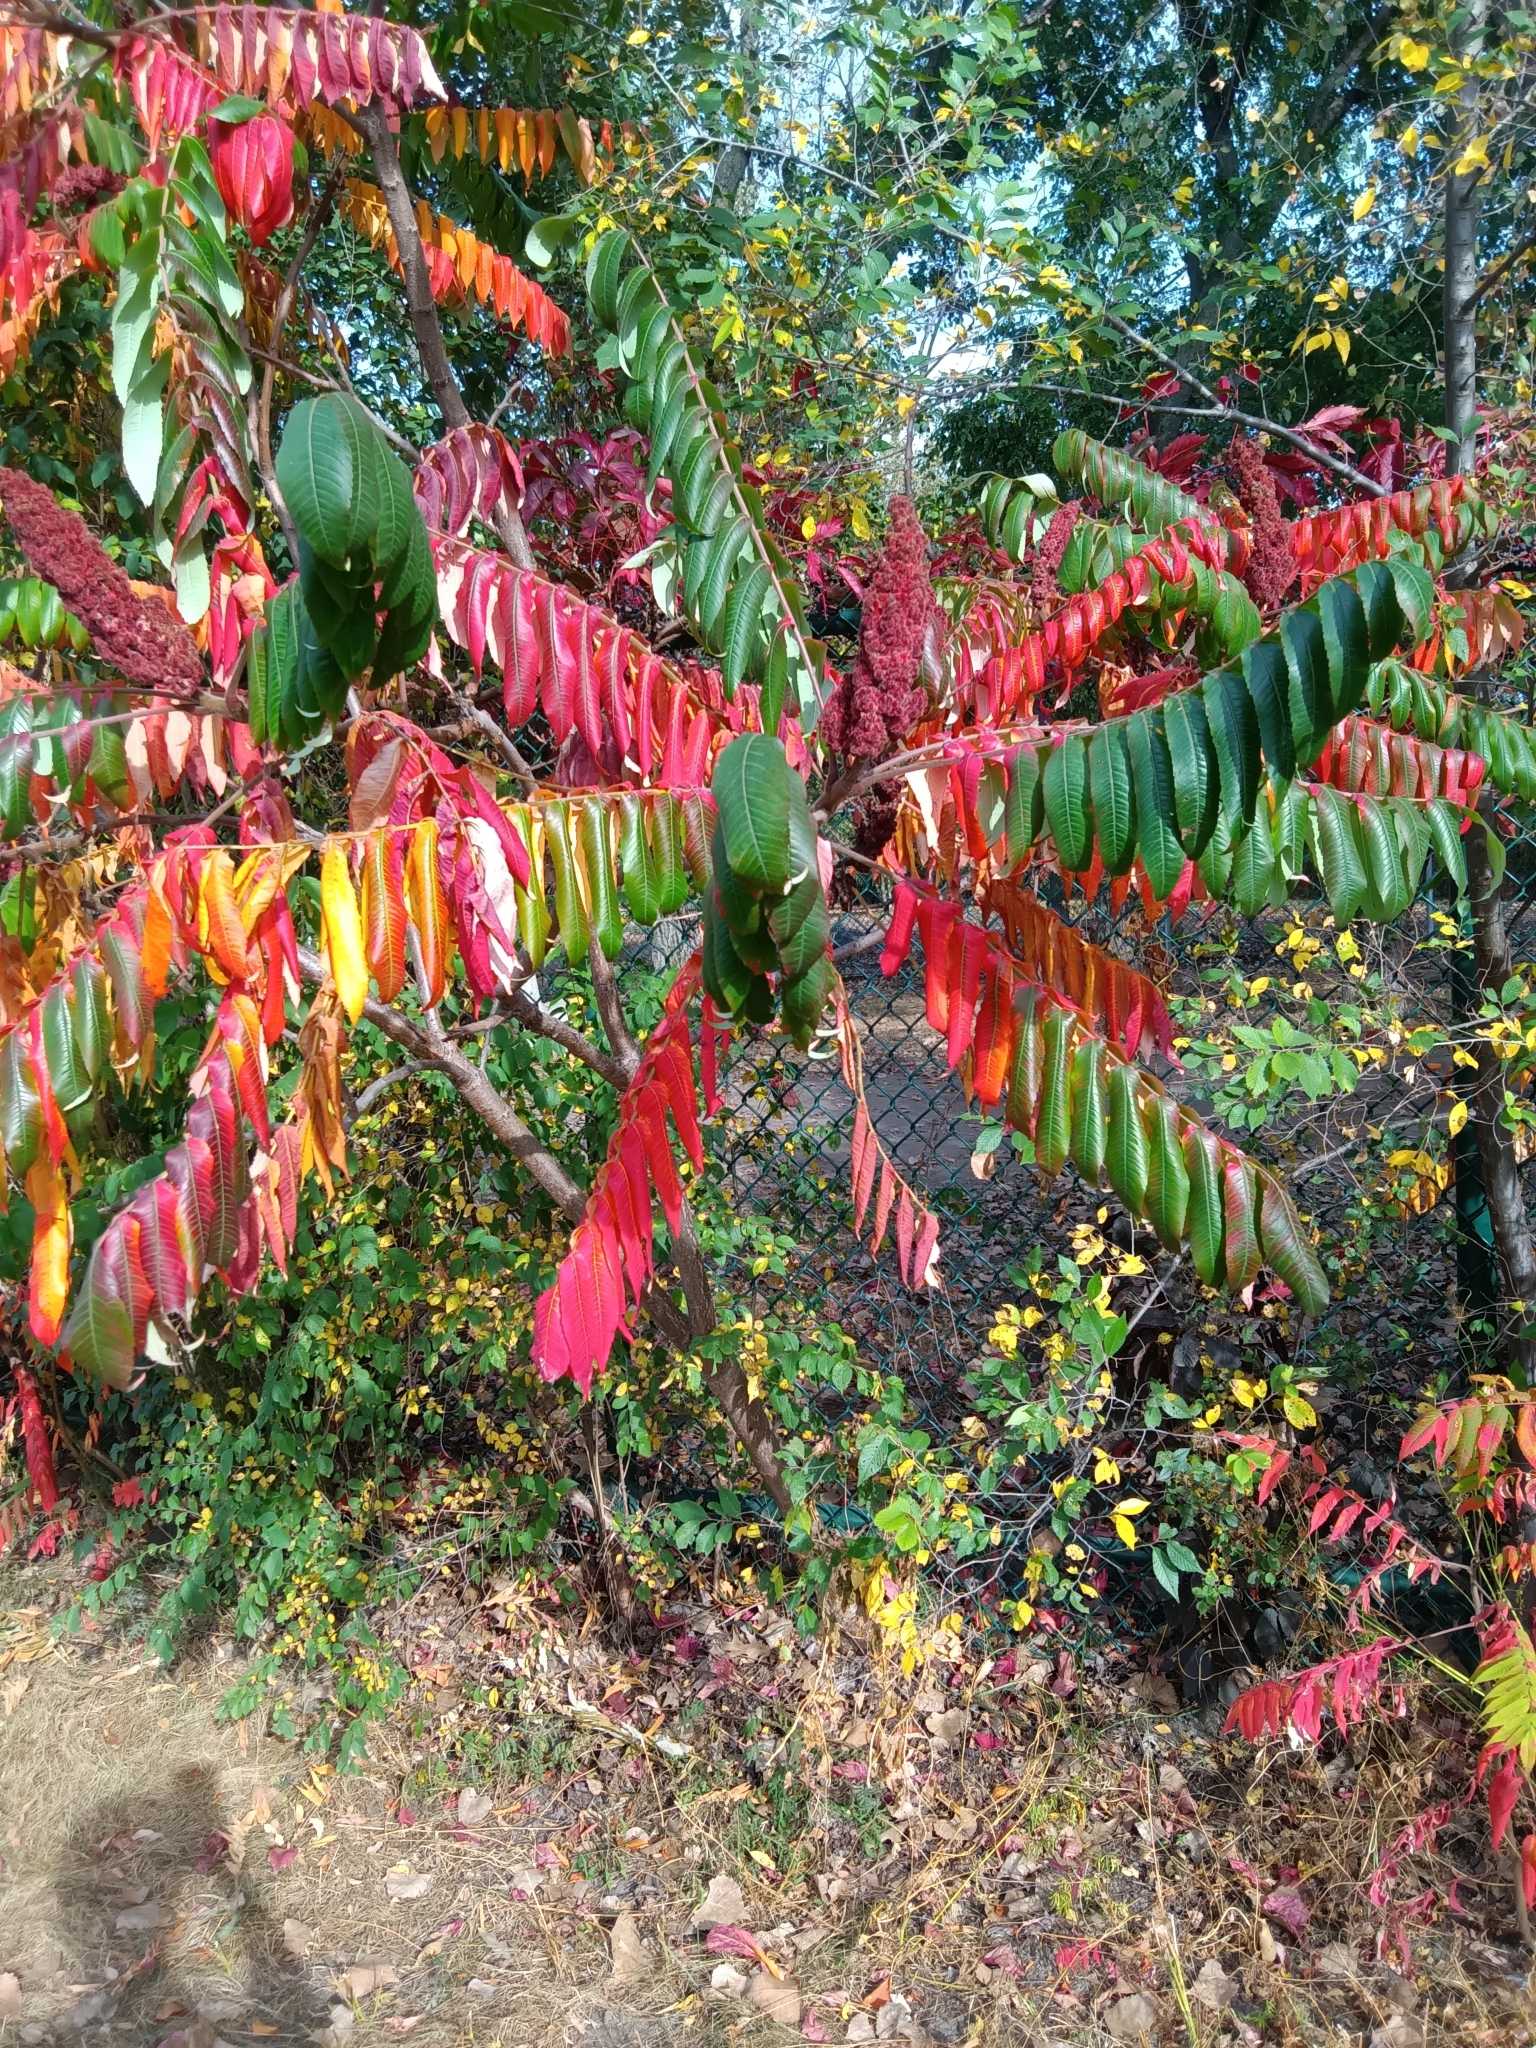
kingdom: Plantae
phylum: Tracheophyta
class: Magnoliopsida
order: Sapindales
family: Anacardiaceae
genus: Rhus
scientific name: Rhus typhina
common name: Staghorn sumac
